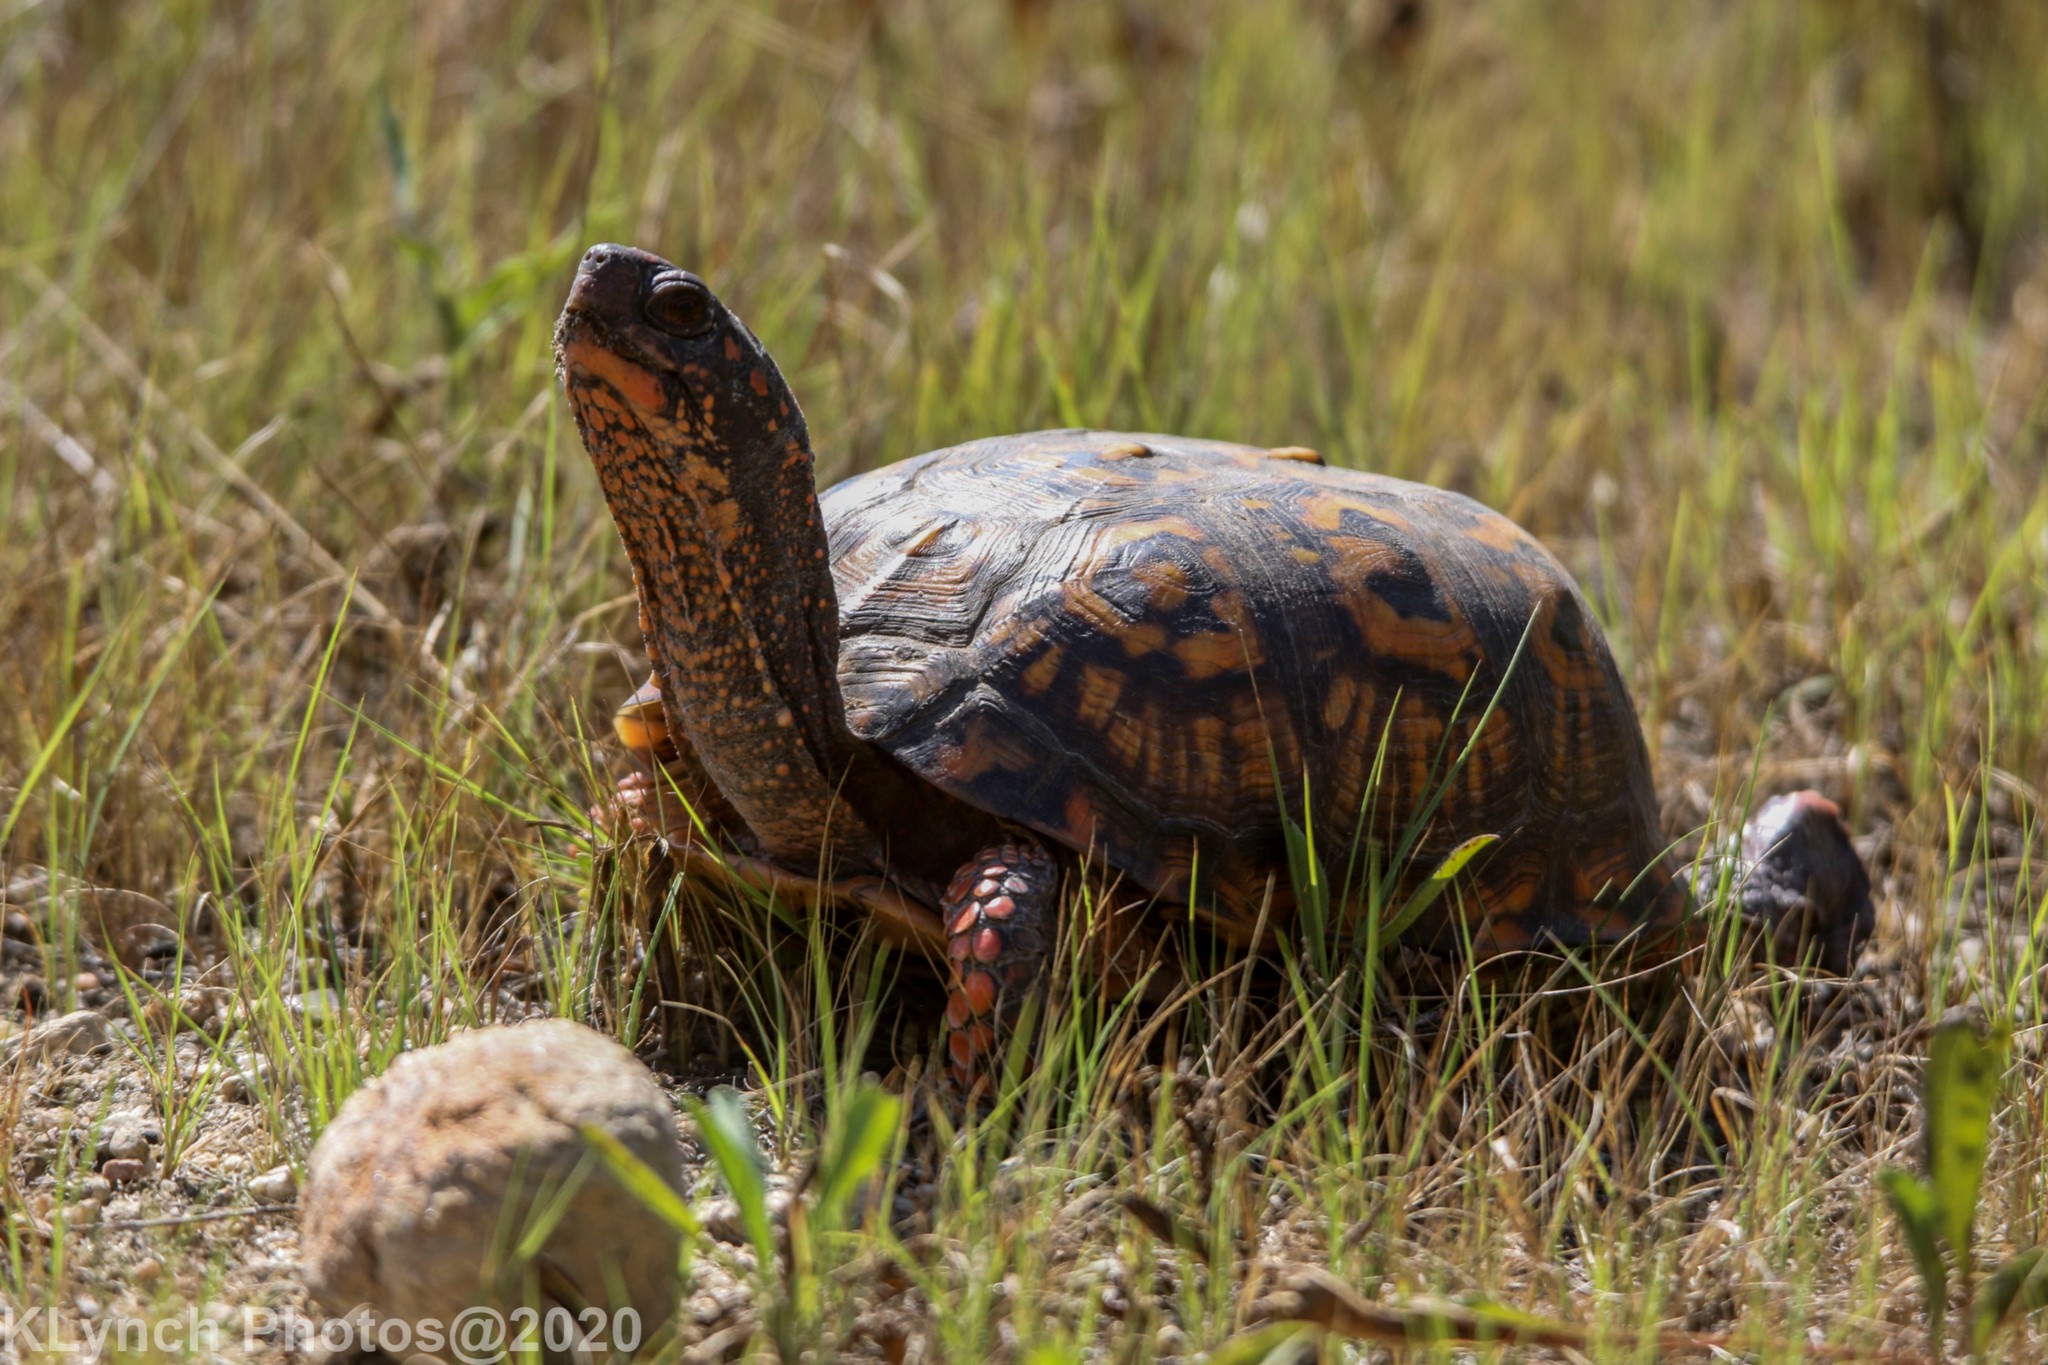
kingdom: Animalia
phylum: Chordata
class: Testudines
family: Emydidae
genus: Terrapene
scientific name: Terrapene carolina
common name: Common box turtle
